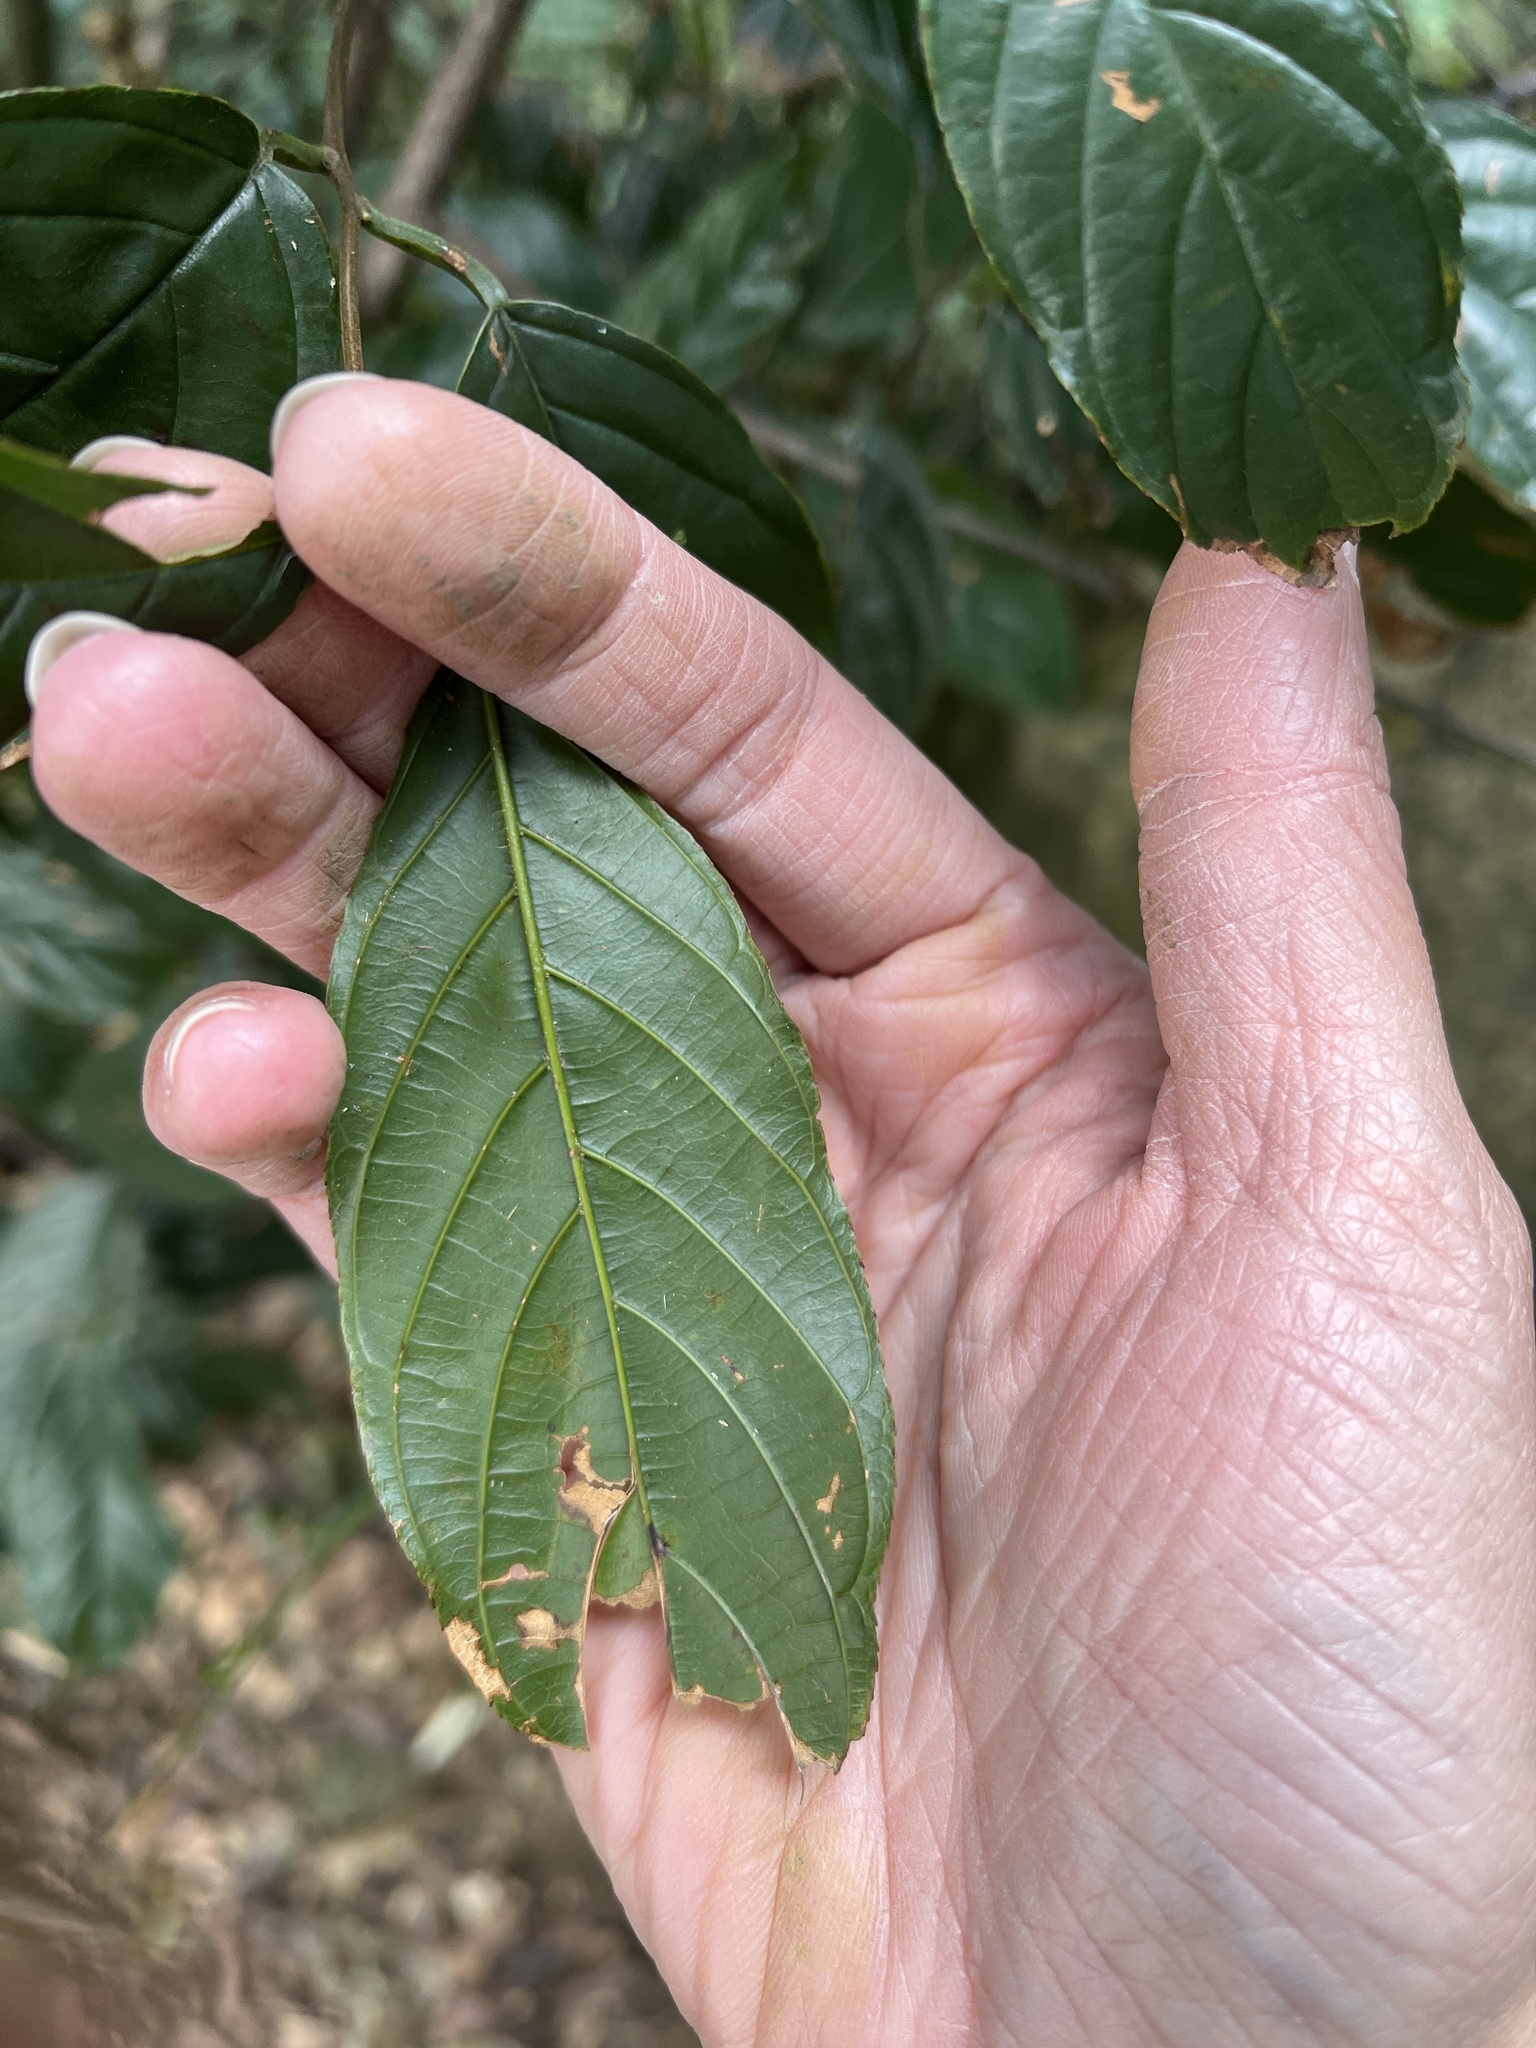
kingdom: Plantae
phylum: Tracheophyta
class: Magnoliopsida
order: Rosales
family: Rhamnaceae
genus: Sageretia
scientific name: Sageretia randaiensis
